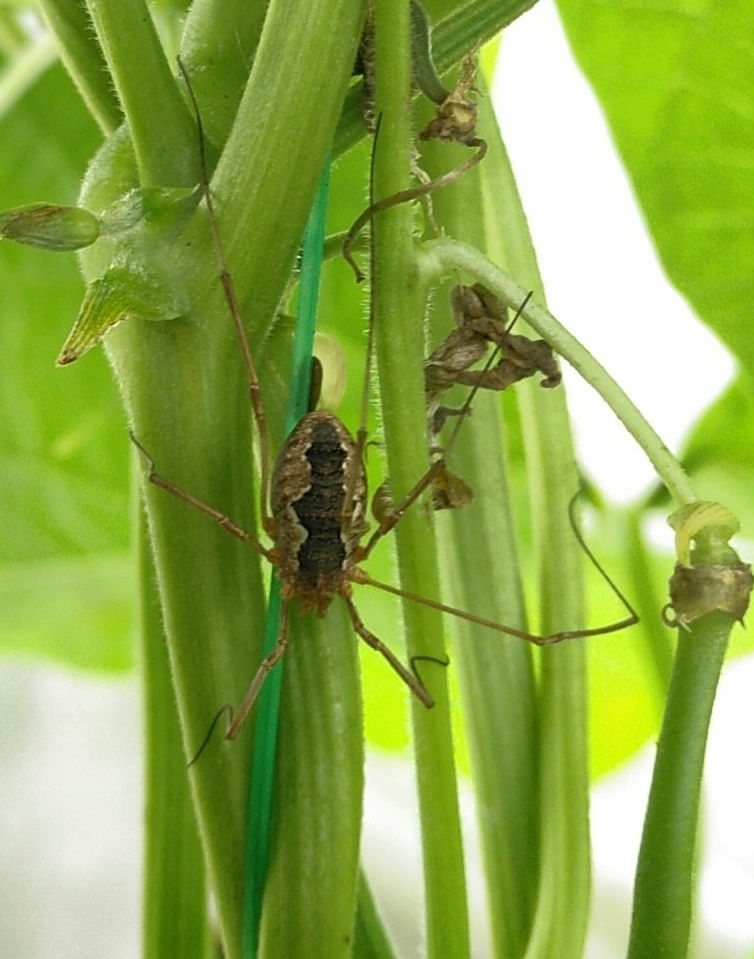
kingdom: Animalia
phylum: Arthropoda
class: Arachnida
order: Opiliones
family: Phalangiidae
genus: Phalangium
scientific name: Phalangium opilio
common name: Daddy longleg
